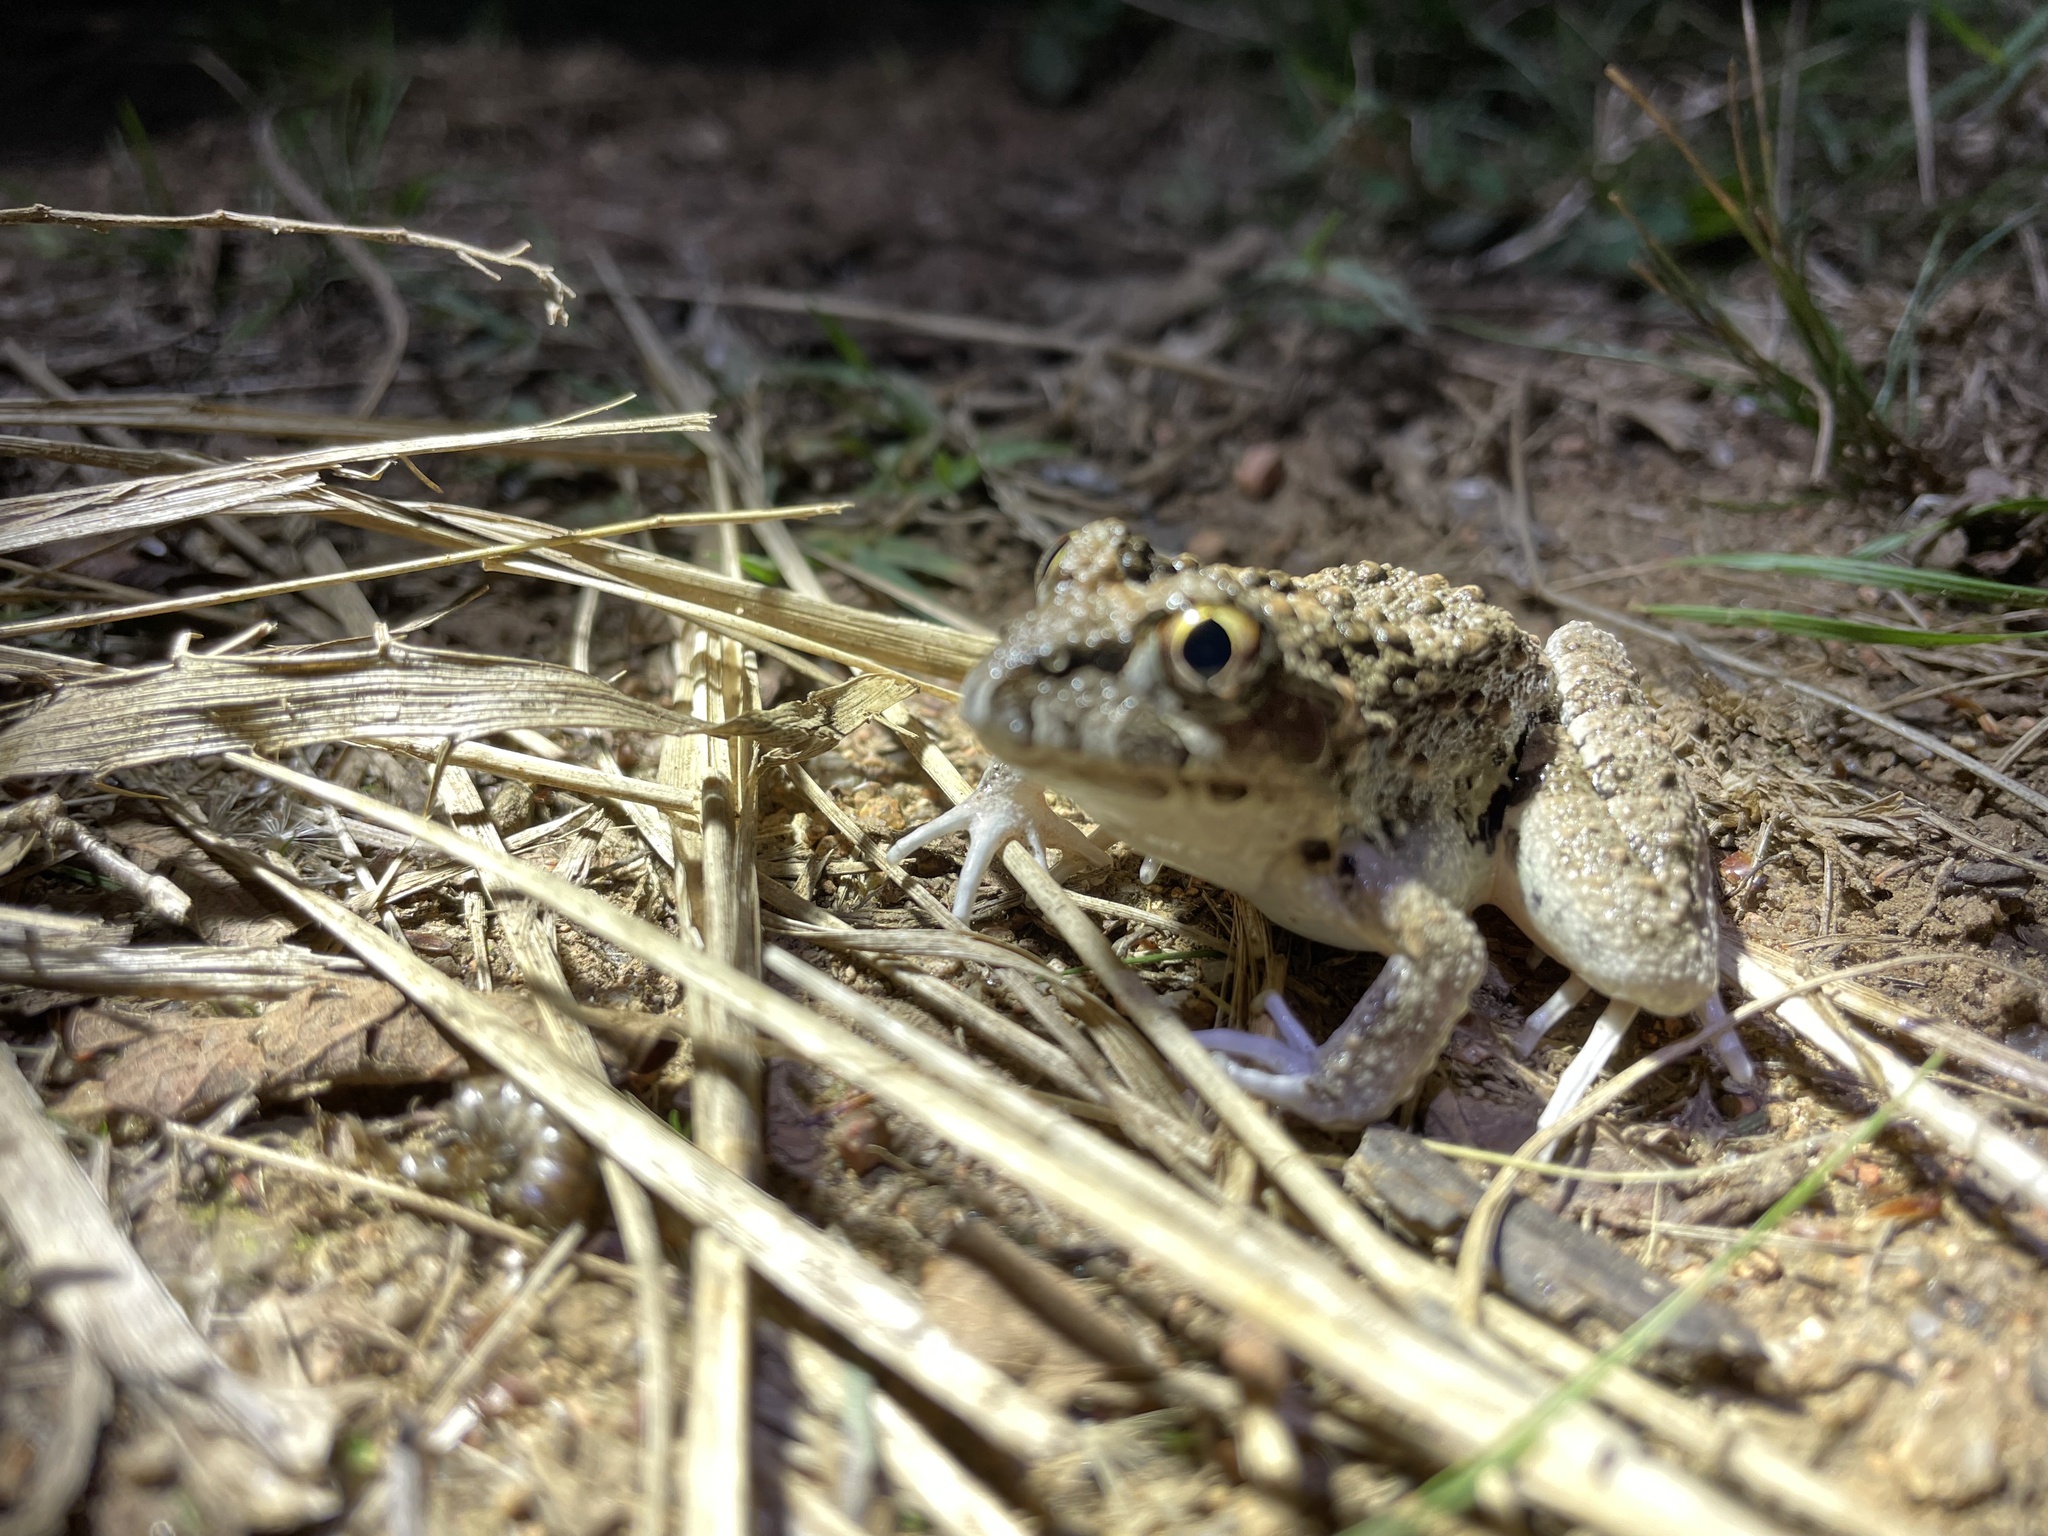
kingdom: Animalia
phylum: Chordata
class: Amphibia
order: Anura
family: Alsodidae
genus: Limnomedusa
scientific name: Limnomedusa macroglossa
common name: Rapids frog
